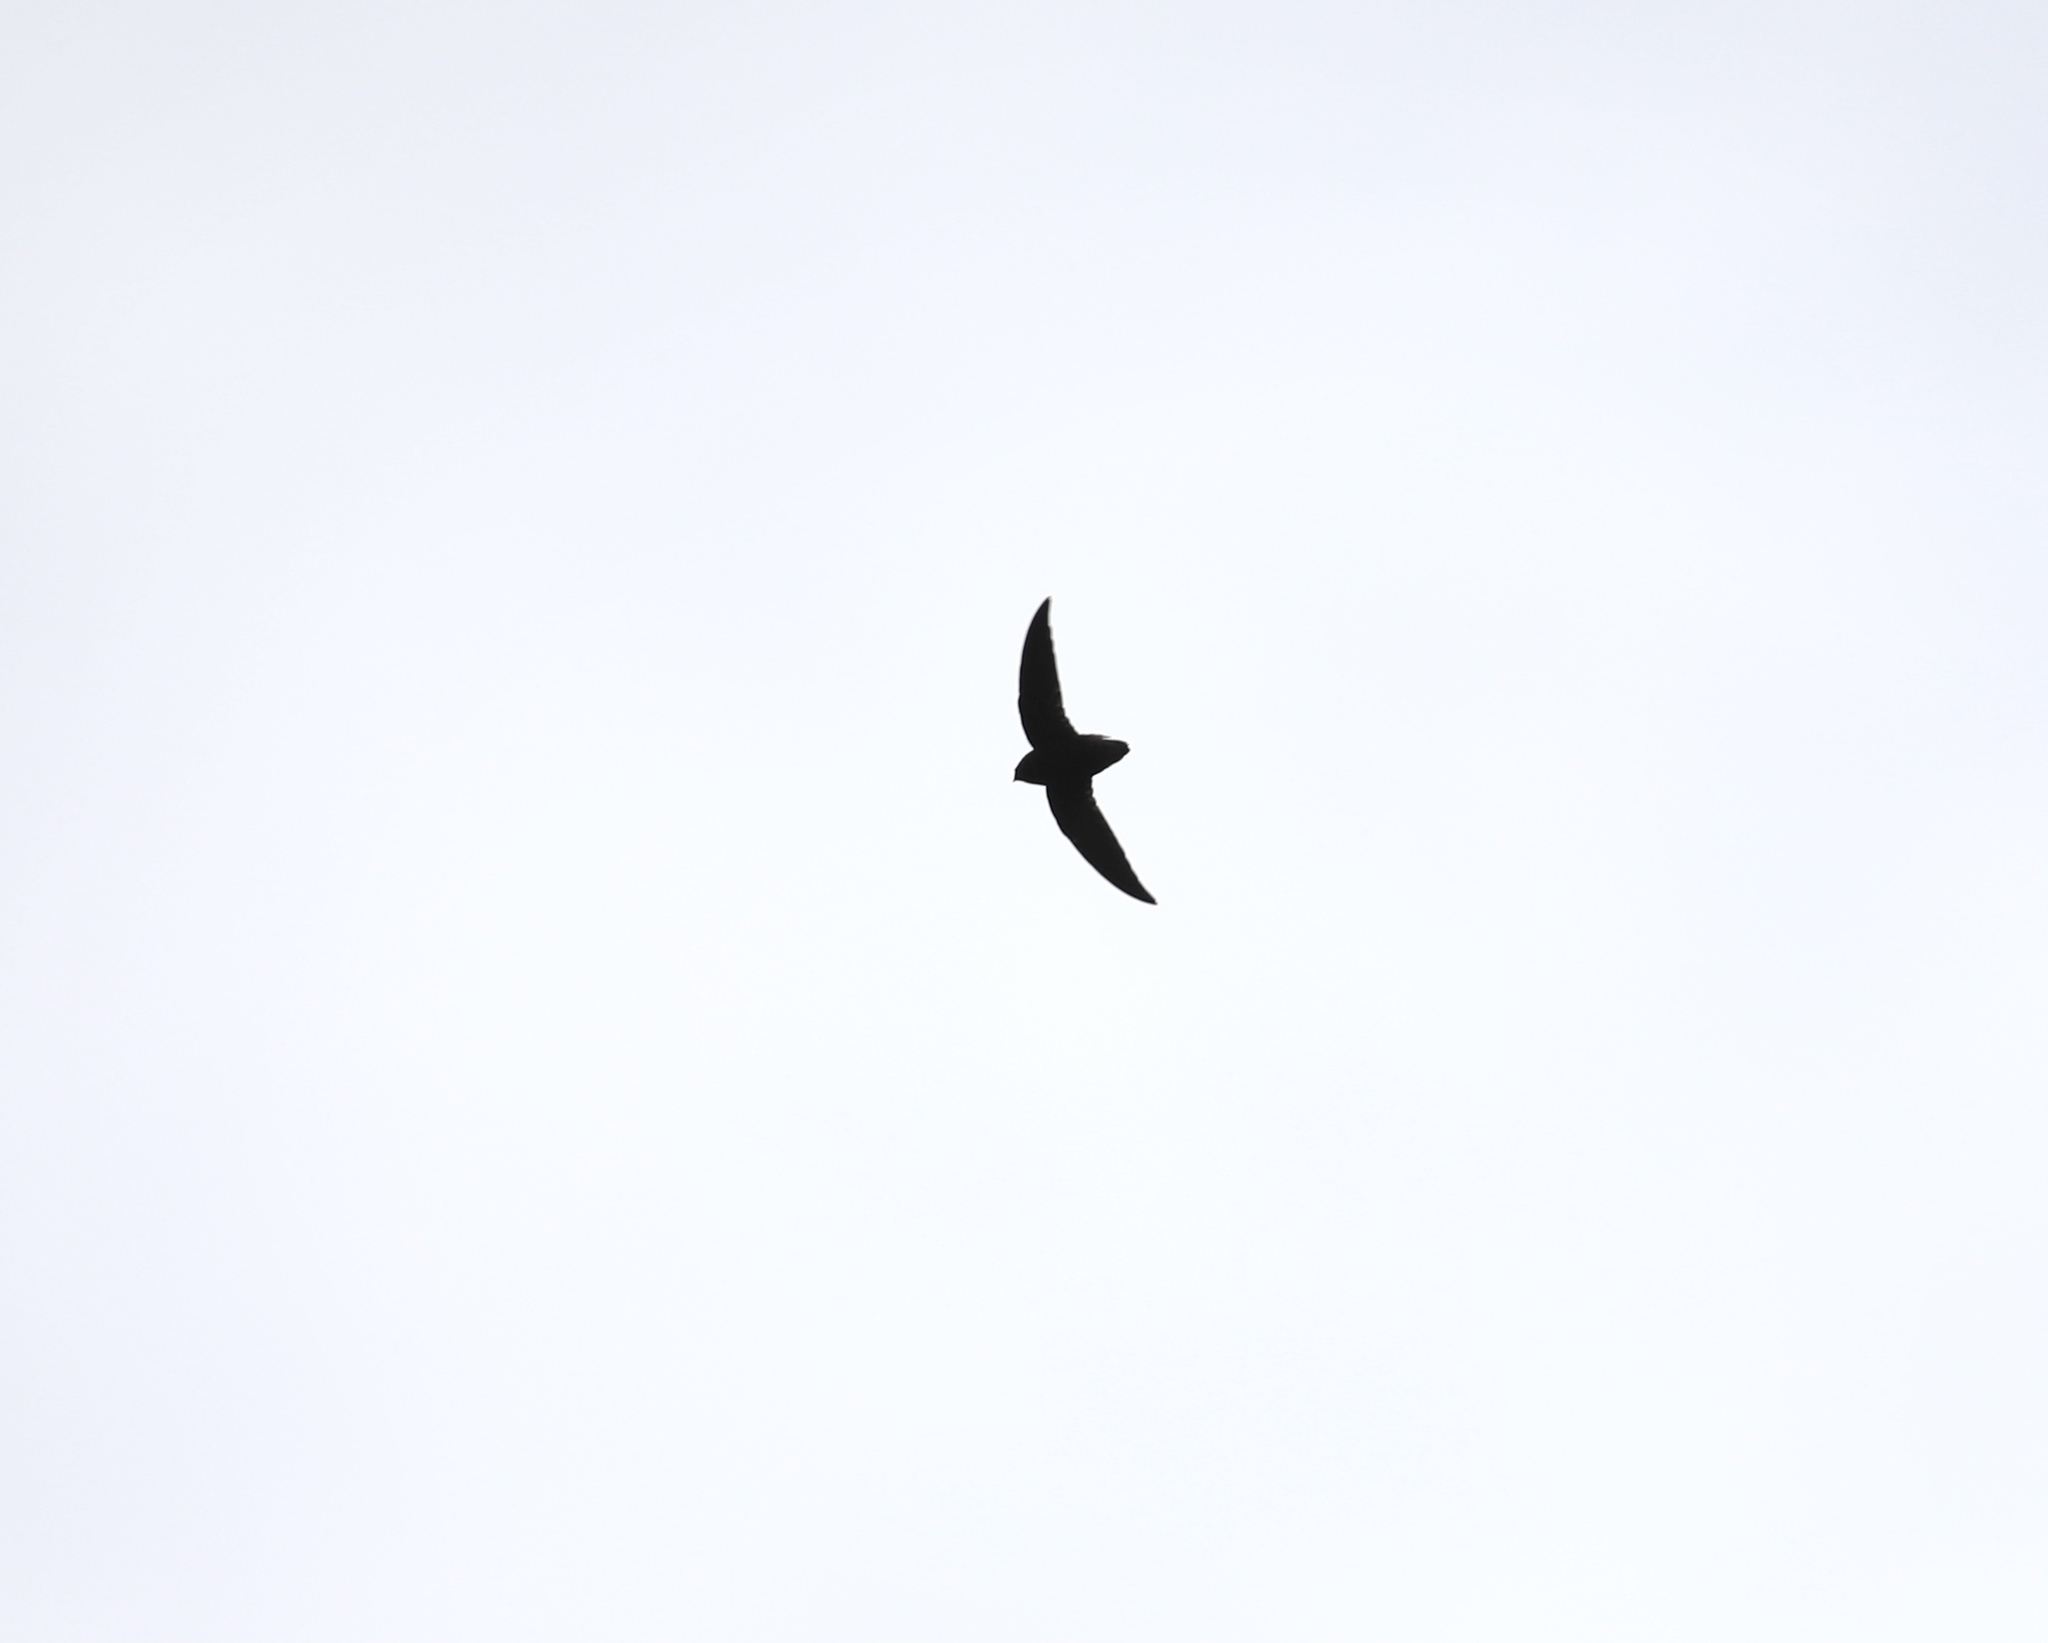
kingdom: Animalia
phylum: Chordata
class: Aves
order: Apodiformes
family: Apodidae
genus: Chaetura
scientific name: Chaetura brachyura
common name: Short-tailed swift
